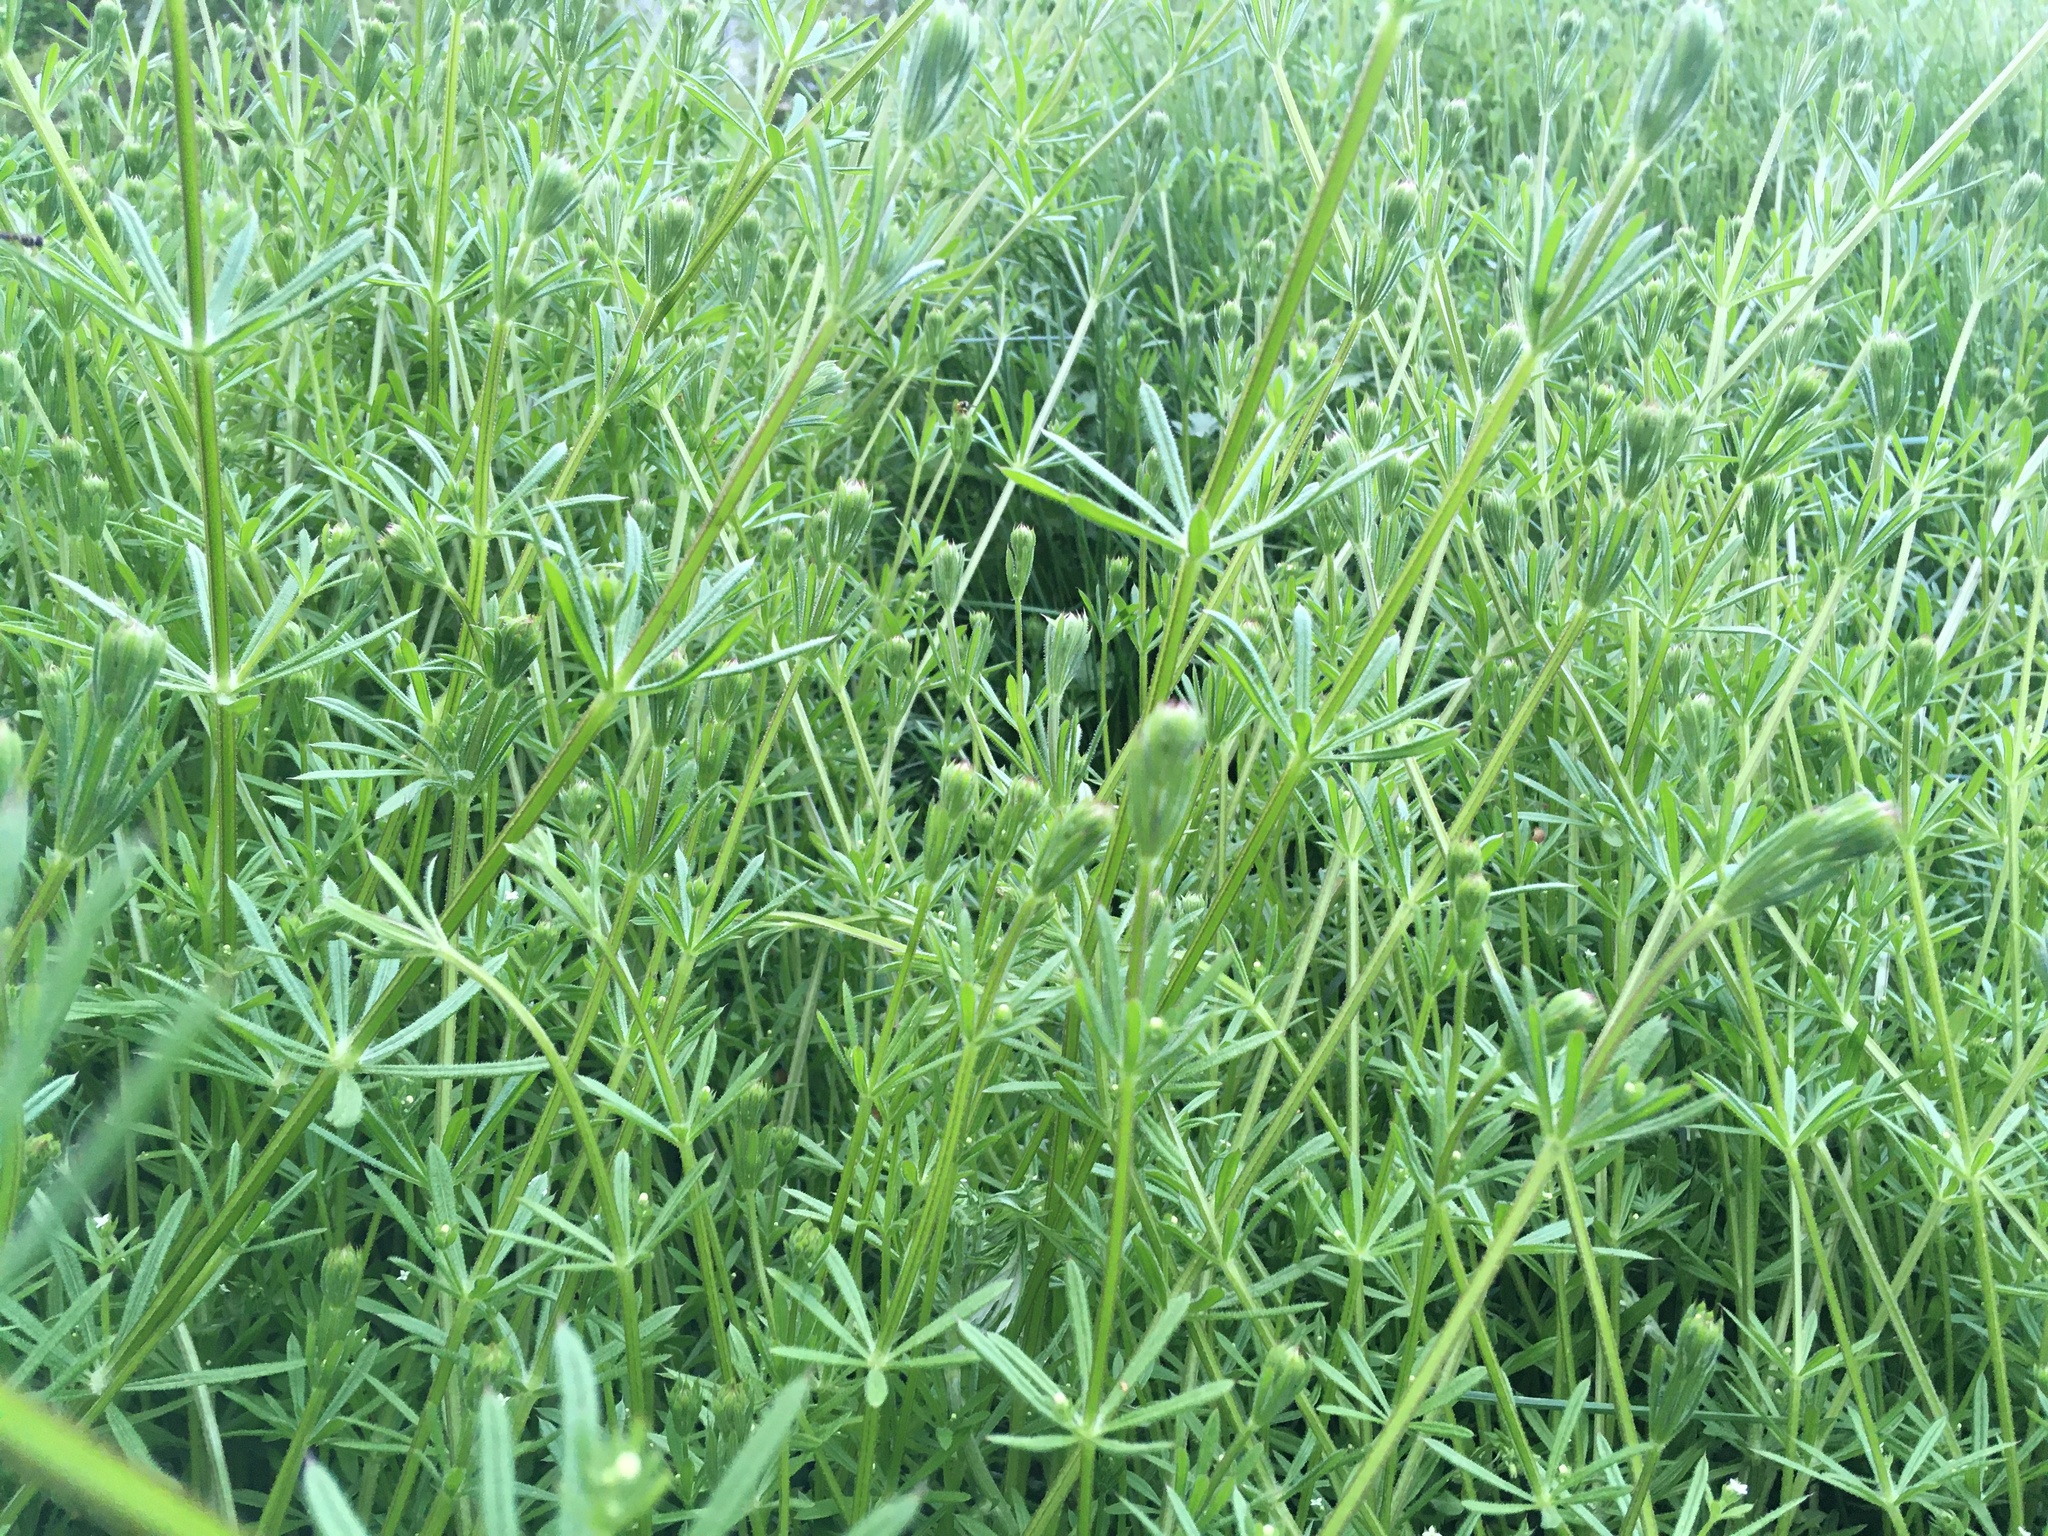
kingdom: Plantae
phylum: Tracheophyta
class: Magnoliopsida
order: Gentianales
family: Rubiaceae
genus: Galium
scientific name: Galium aparine
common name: Cleavers
